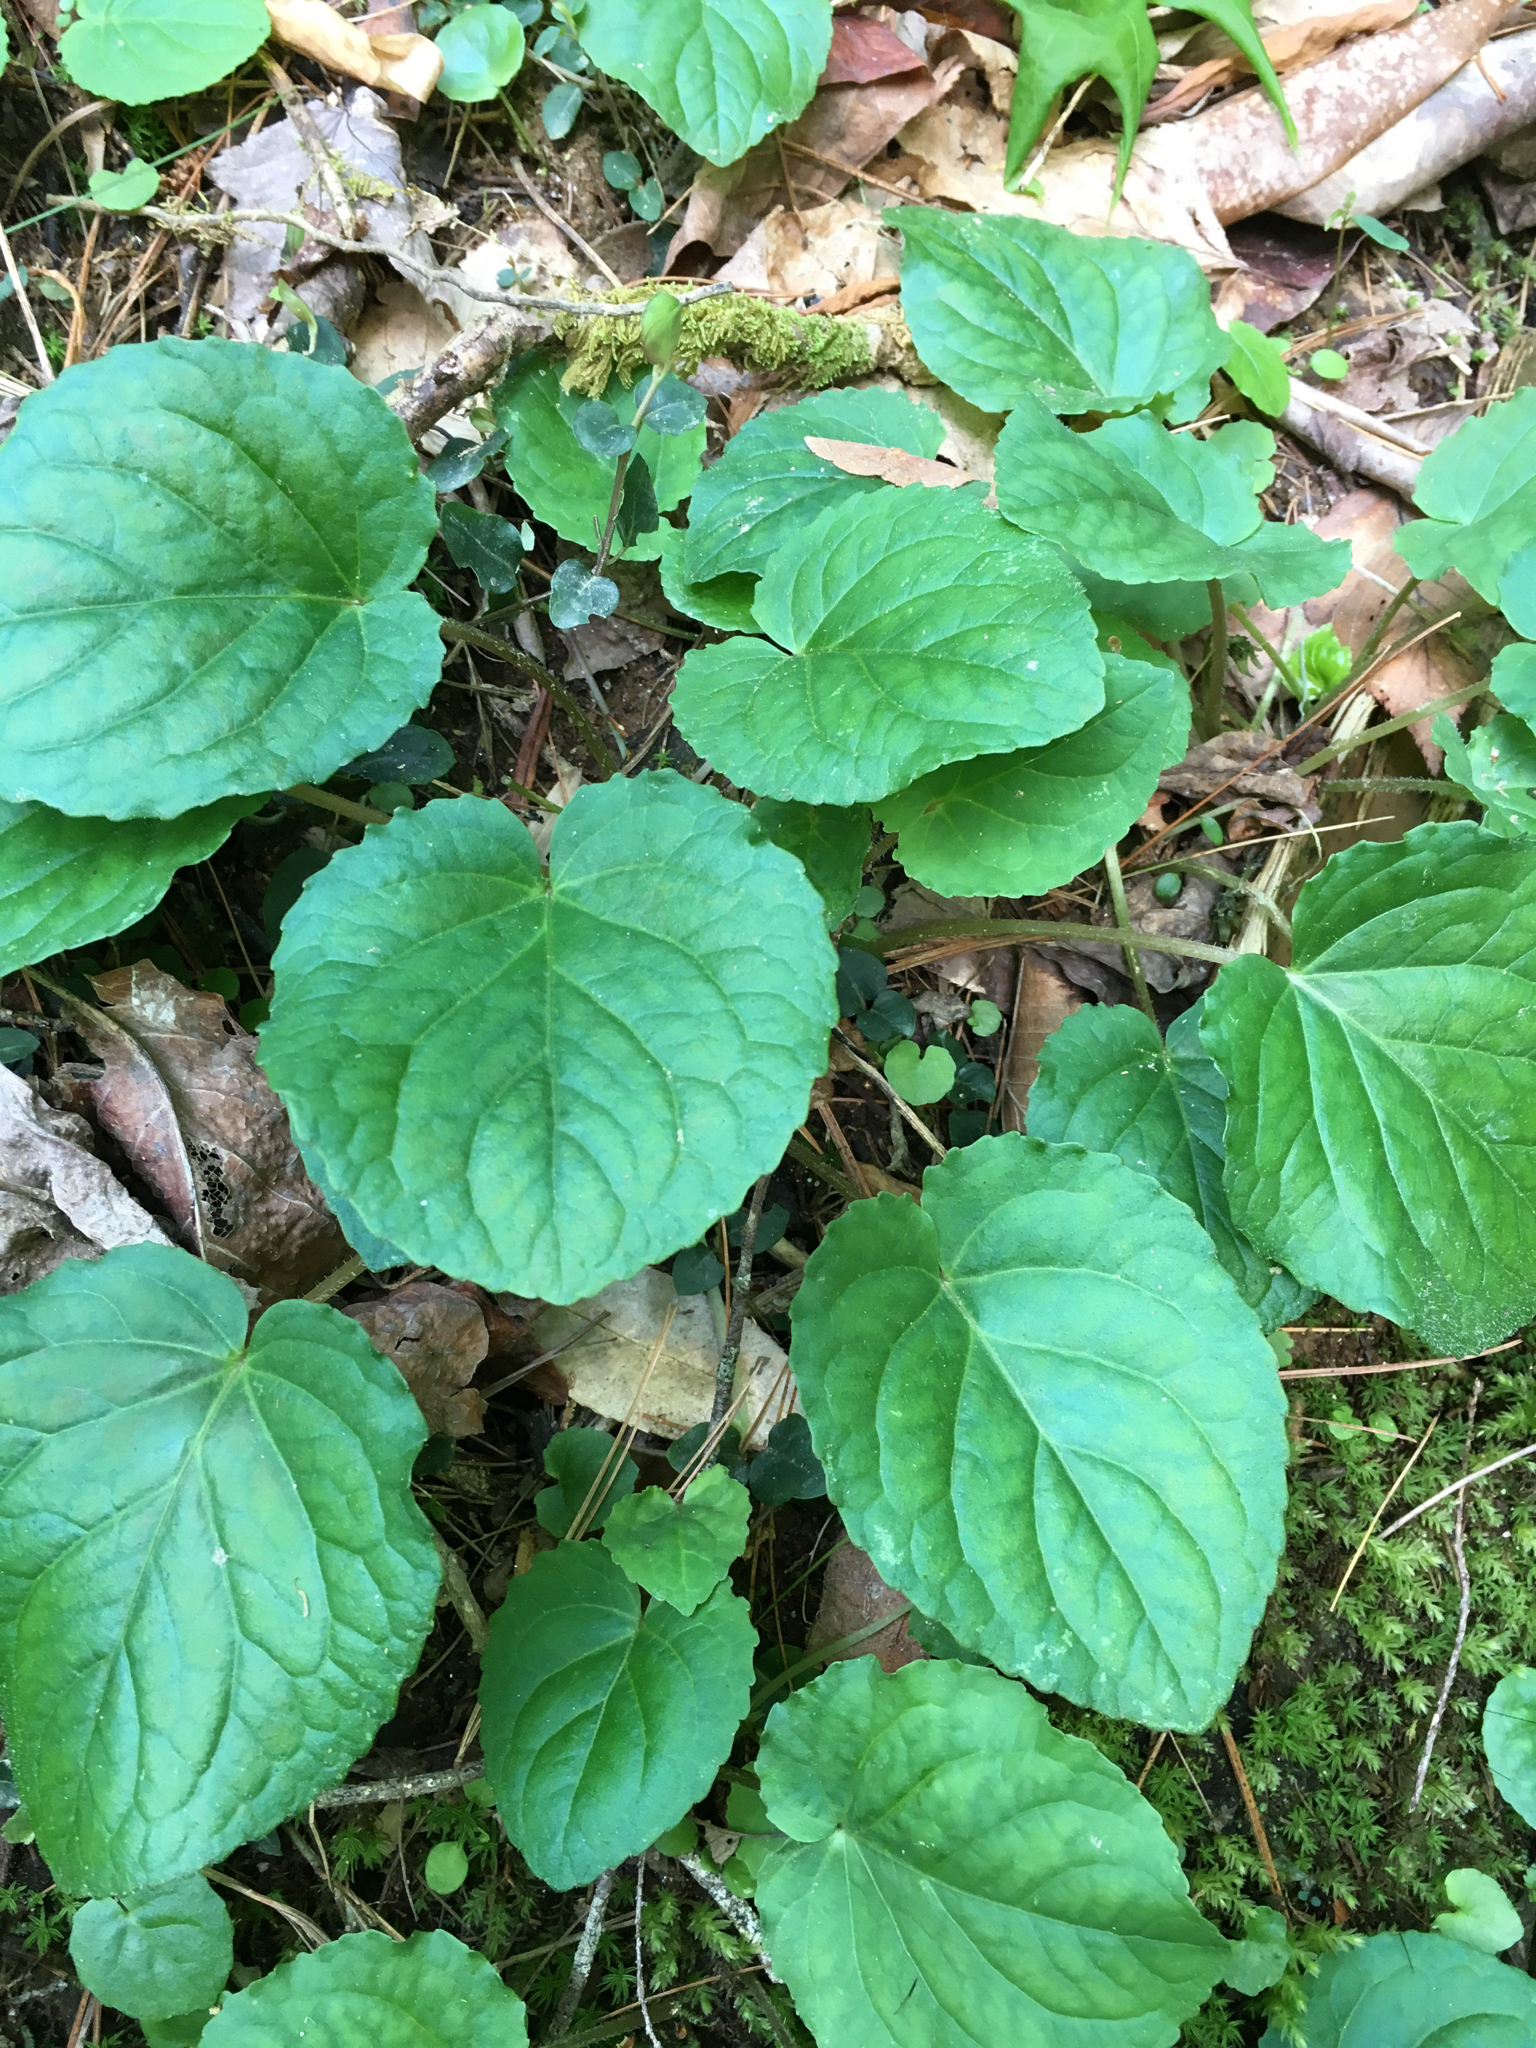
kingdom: Plantae
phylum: Tracheophyta
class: Magnoliopsida
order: Malpighiales
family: Violaceae
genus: Viola
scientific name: Viola rotundifolia
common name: Early yellow violet
